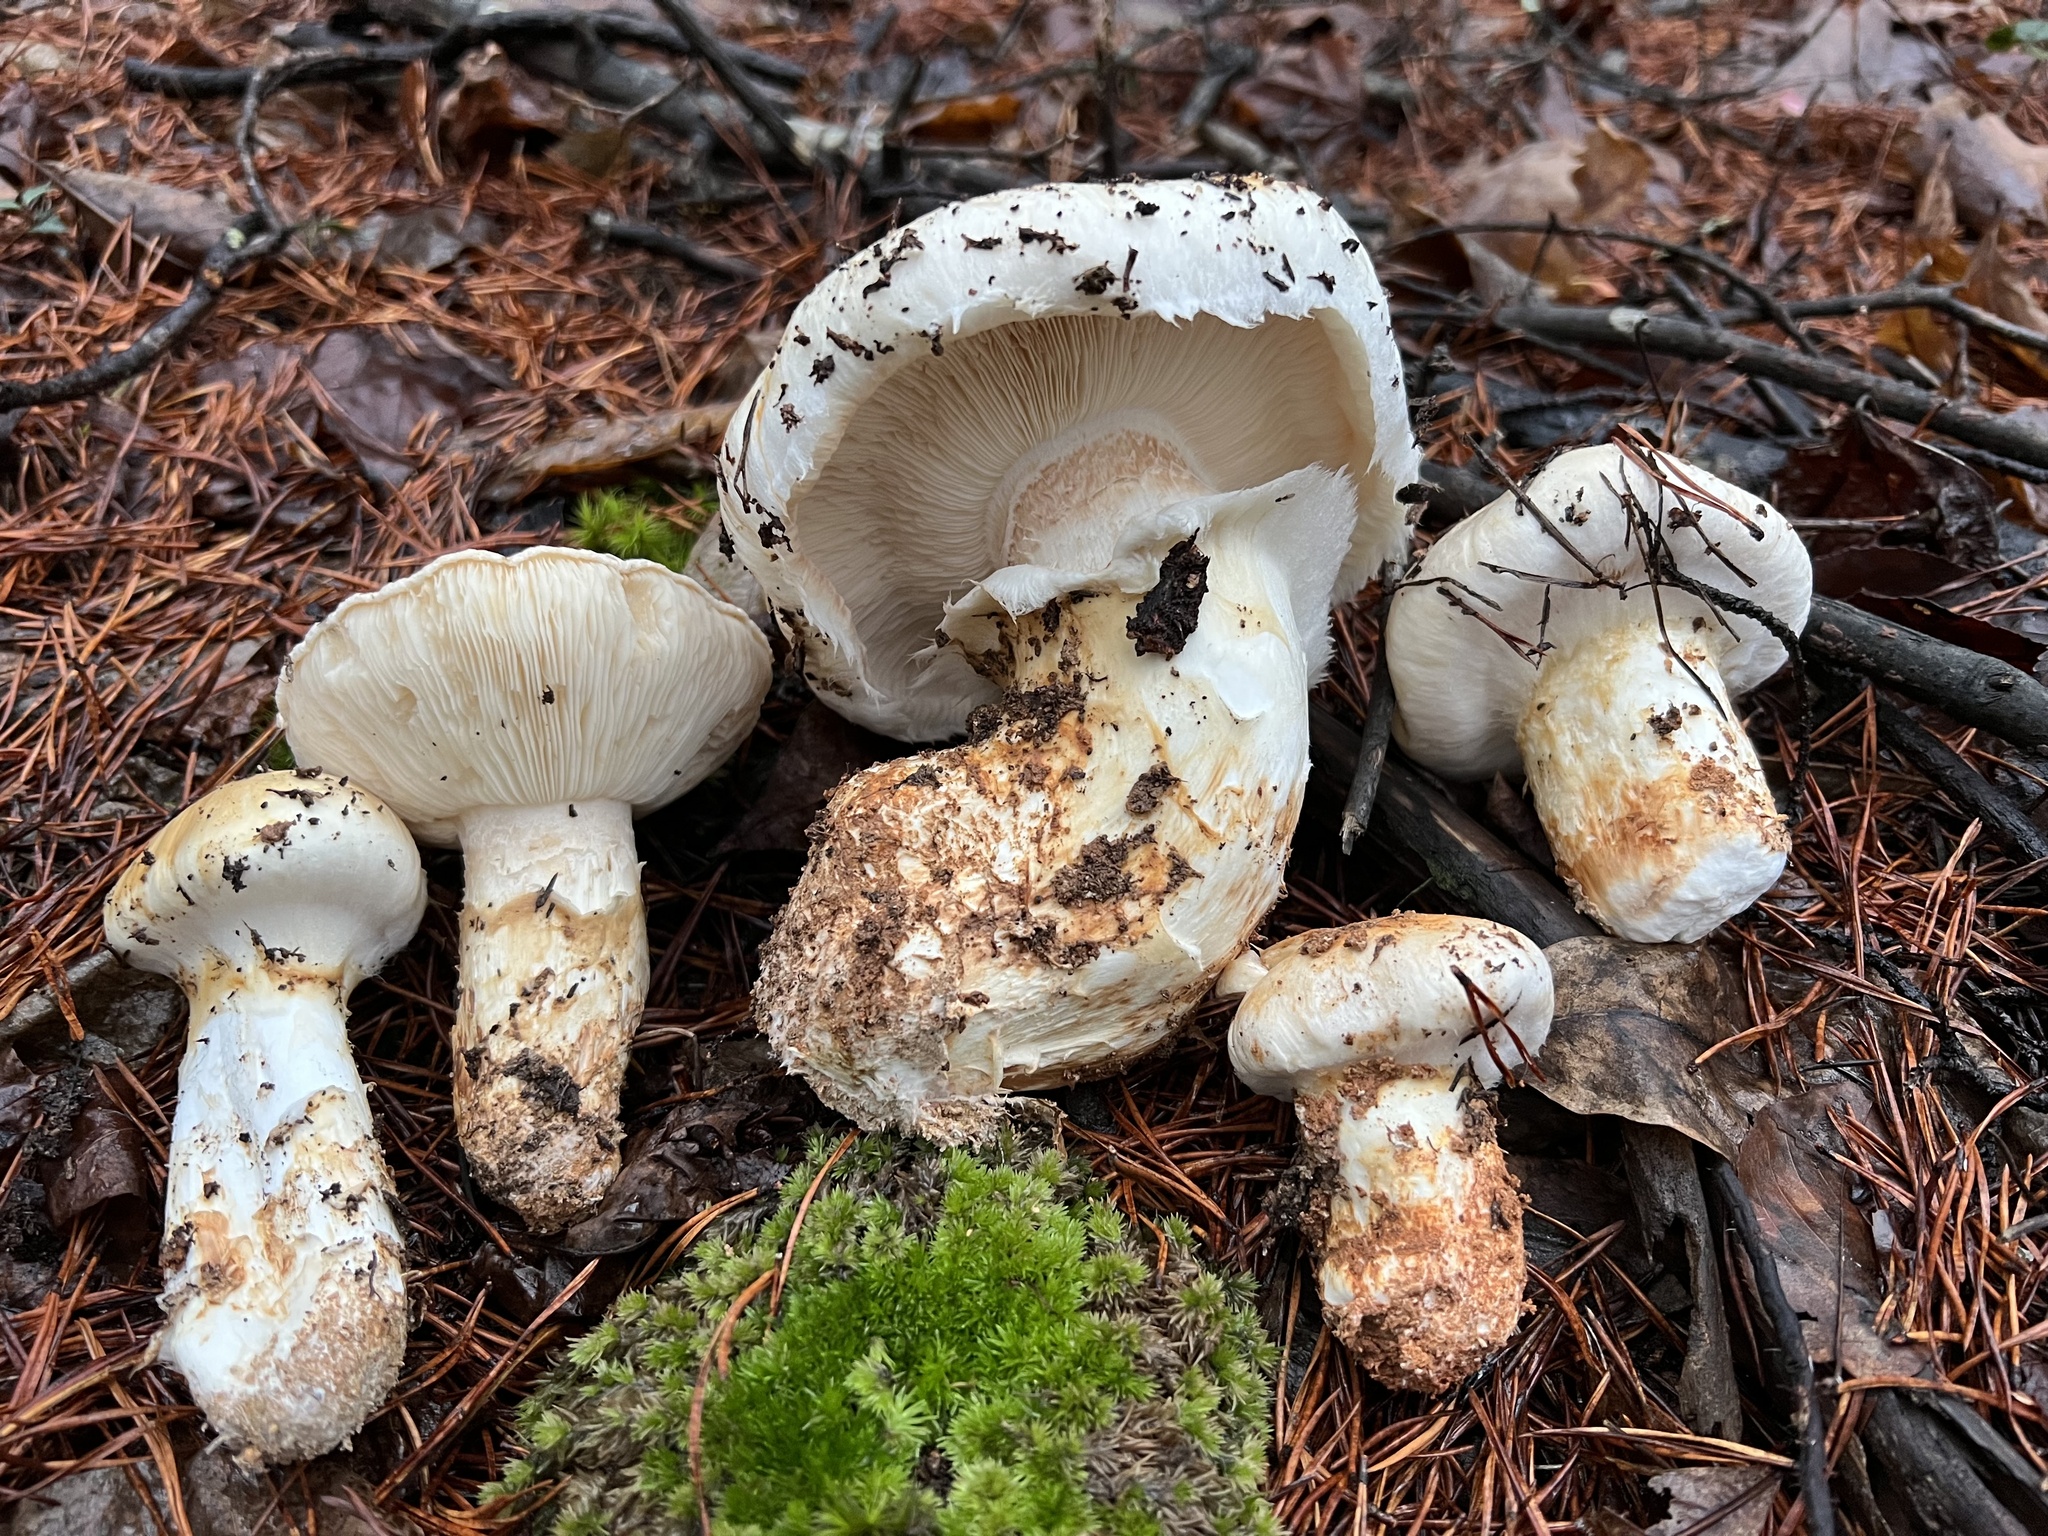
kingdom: Fungi
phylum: Basidiomycota
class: Agaricomycetes
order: Agaricales
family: Tricholomataceae
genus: Tricholoma
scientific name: Tricholoma magnivelare
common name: American matsutake
